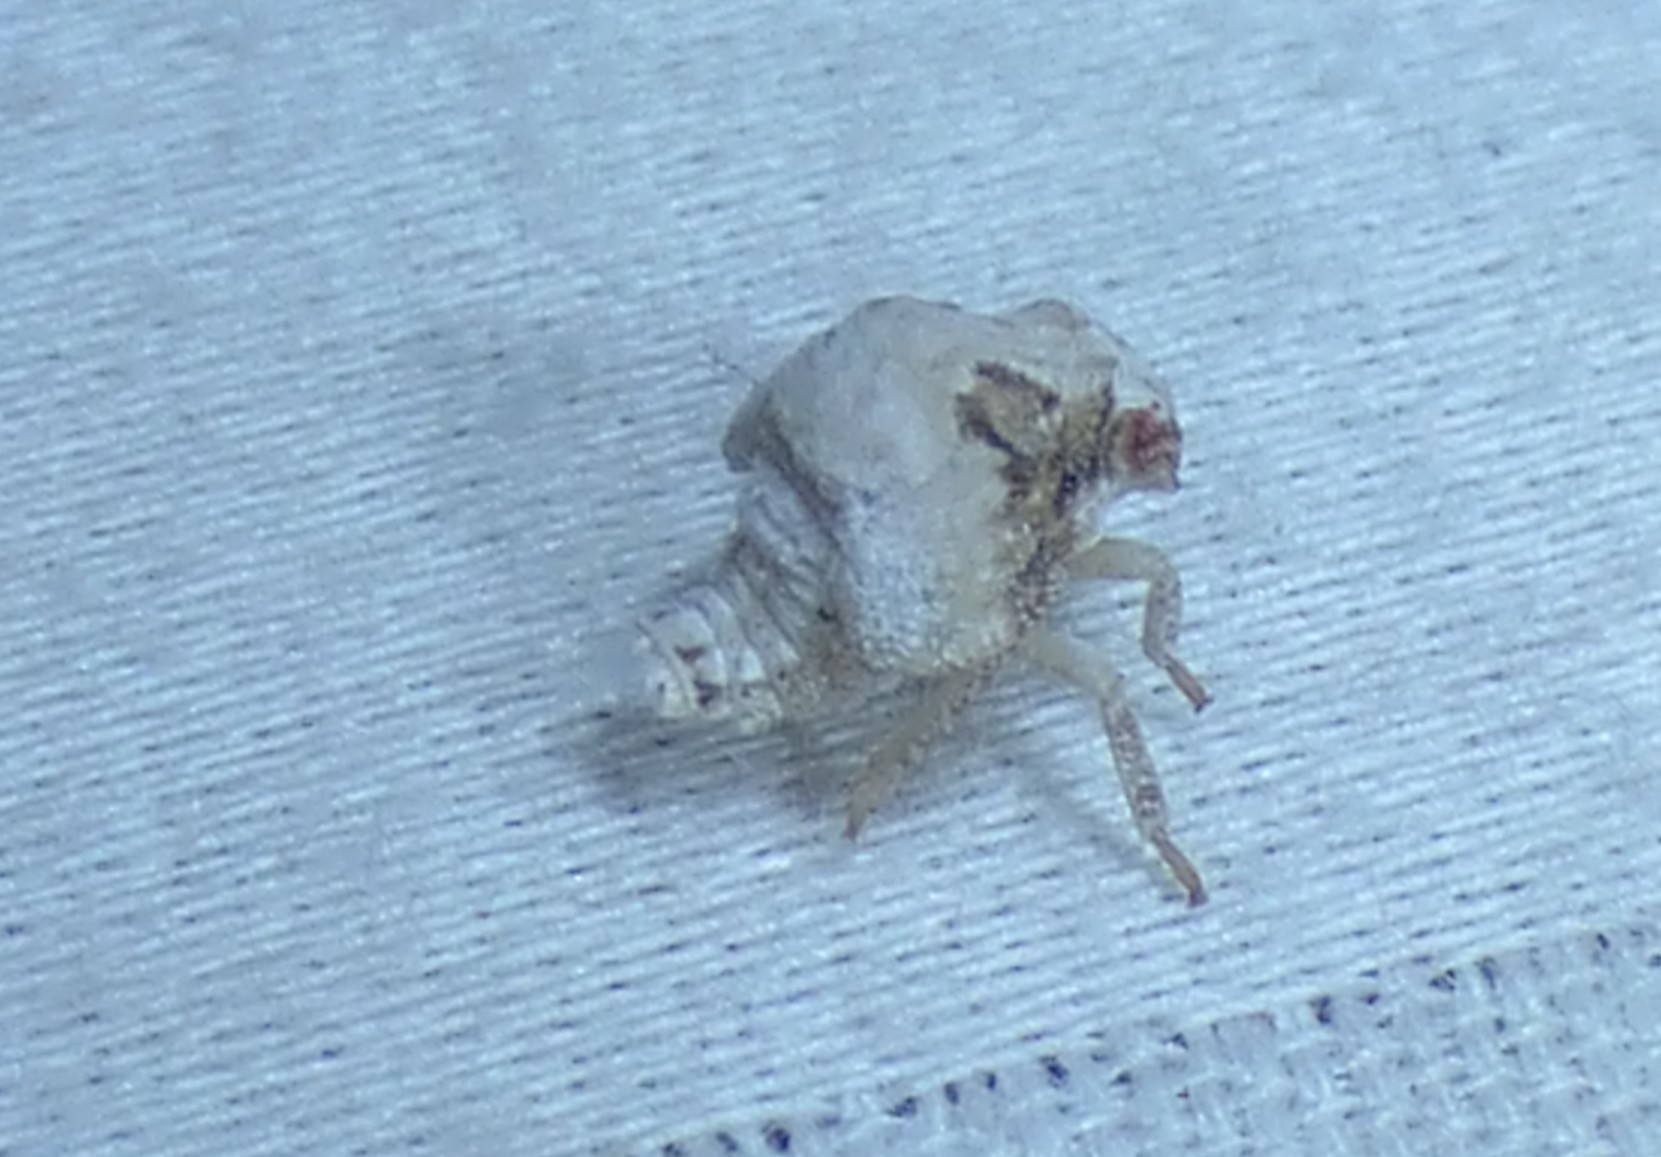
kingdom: Animalia
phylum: Arthropoda
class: Insecta
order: Hemiptera
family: Acanaloniidae
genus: Acanalonia
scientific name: Acanalonia servillei
